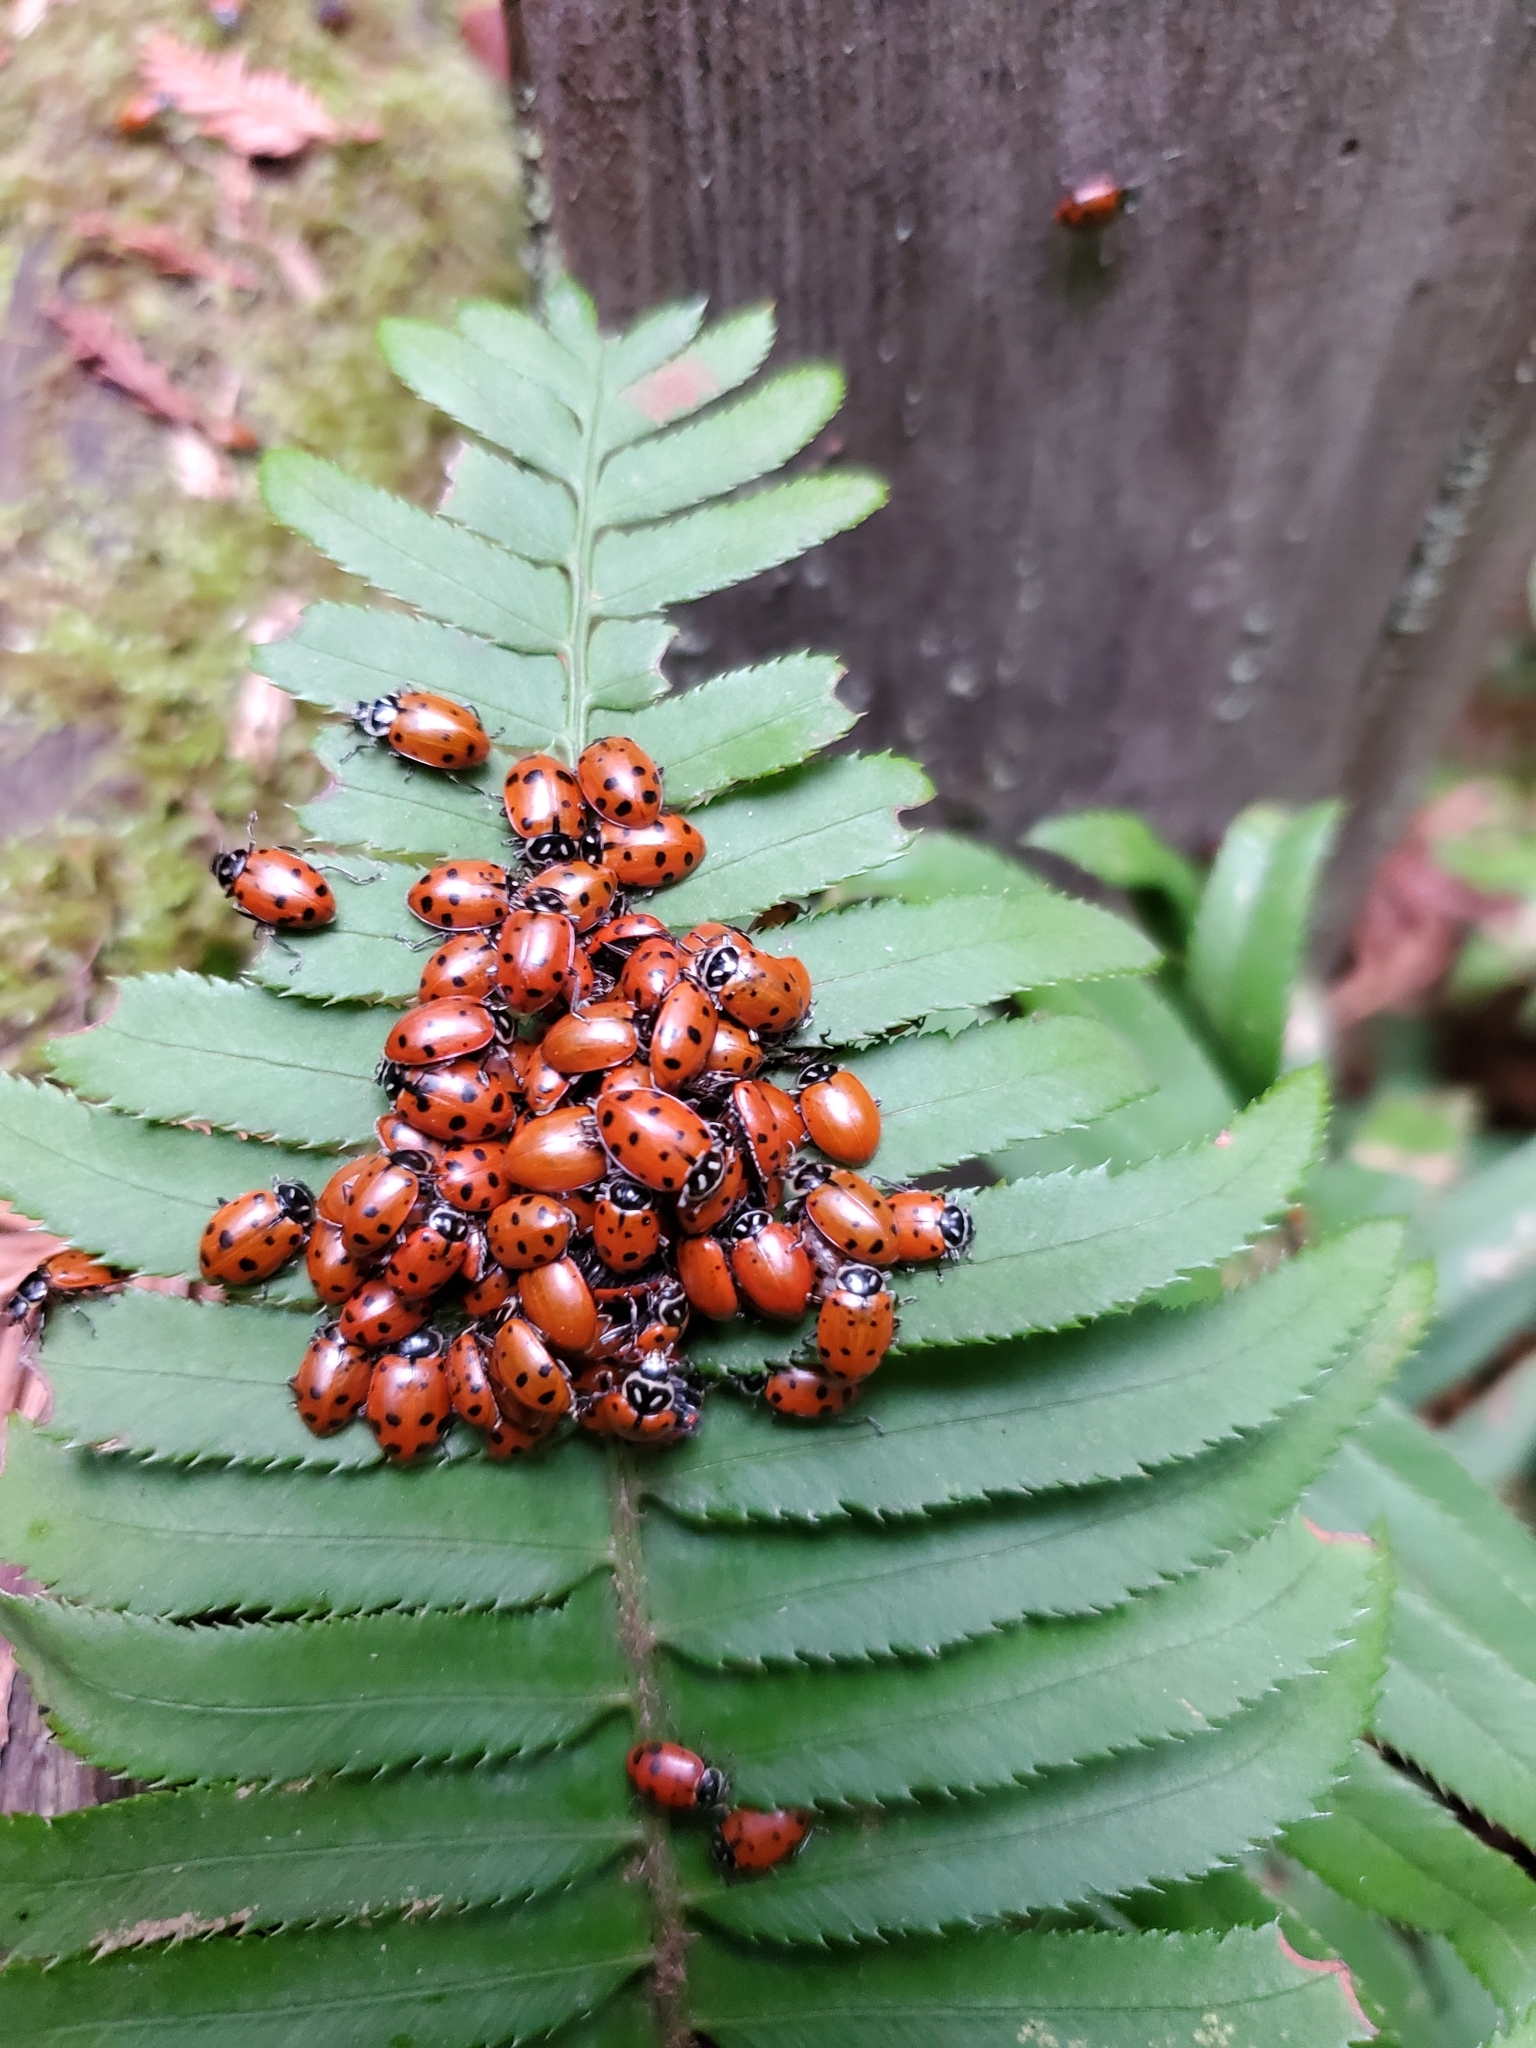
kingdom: Animalia
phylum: Arthropoda
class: Insecta
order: Coleoptera
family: Coccinellidae
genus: Hippodamia
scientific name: Hippodamia convergens
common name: Convergent lady beetle
